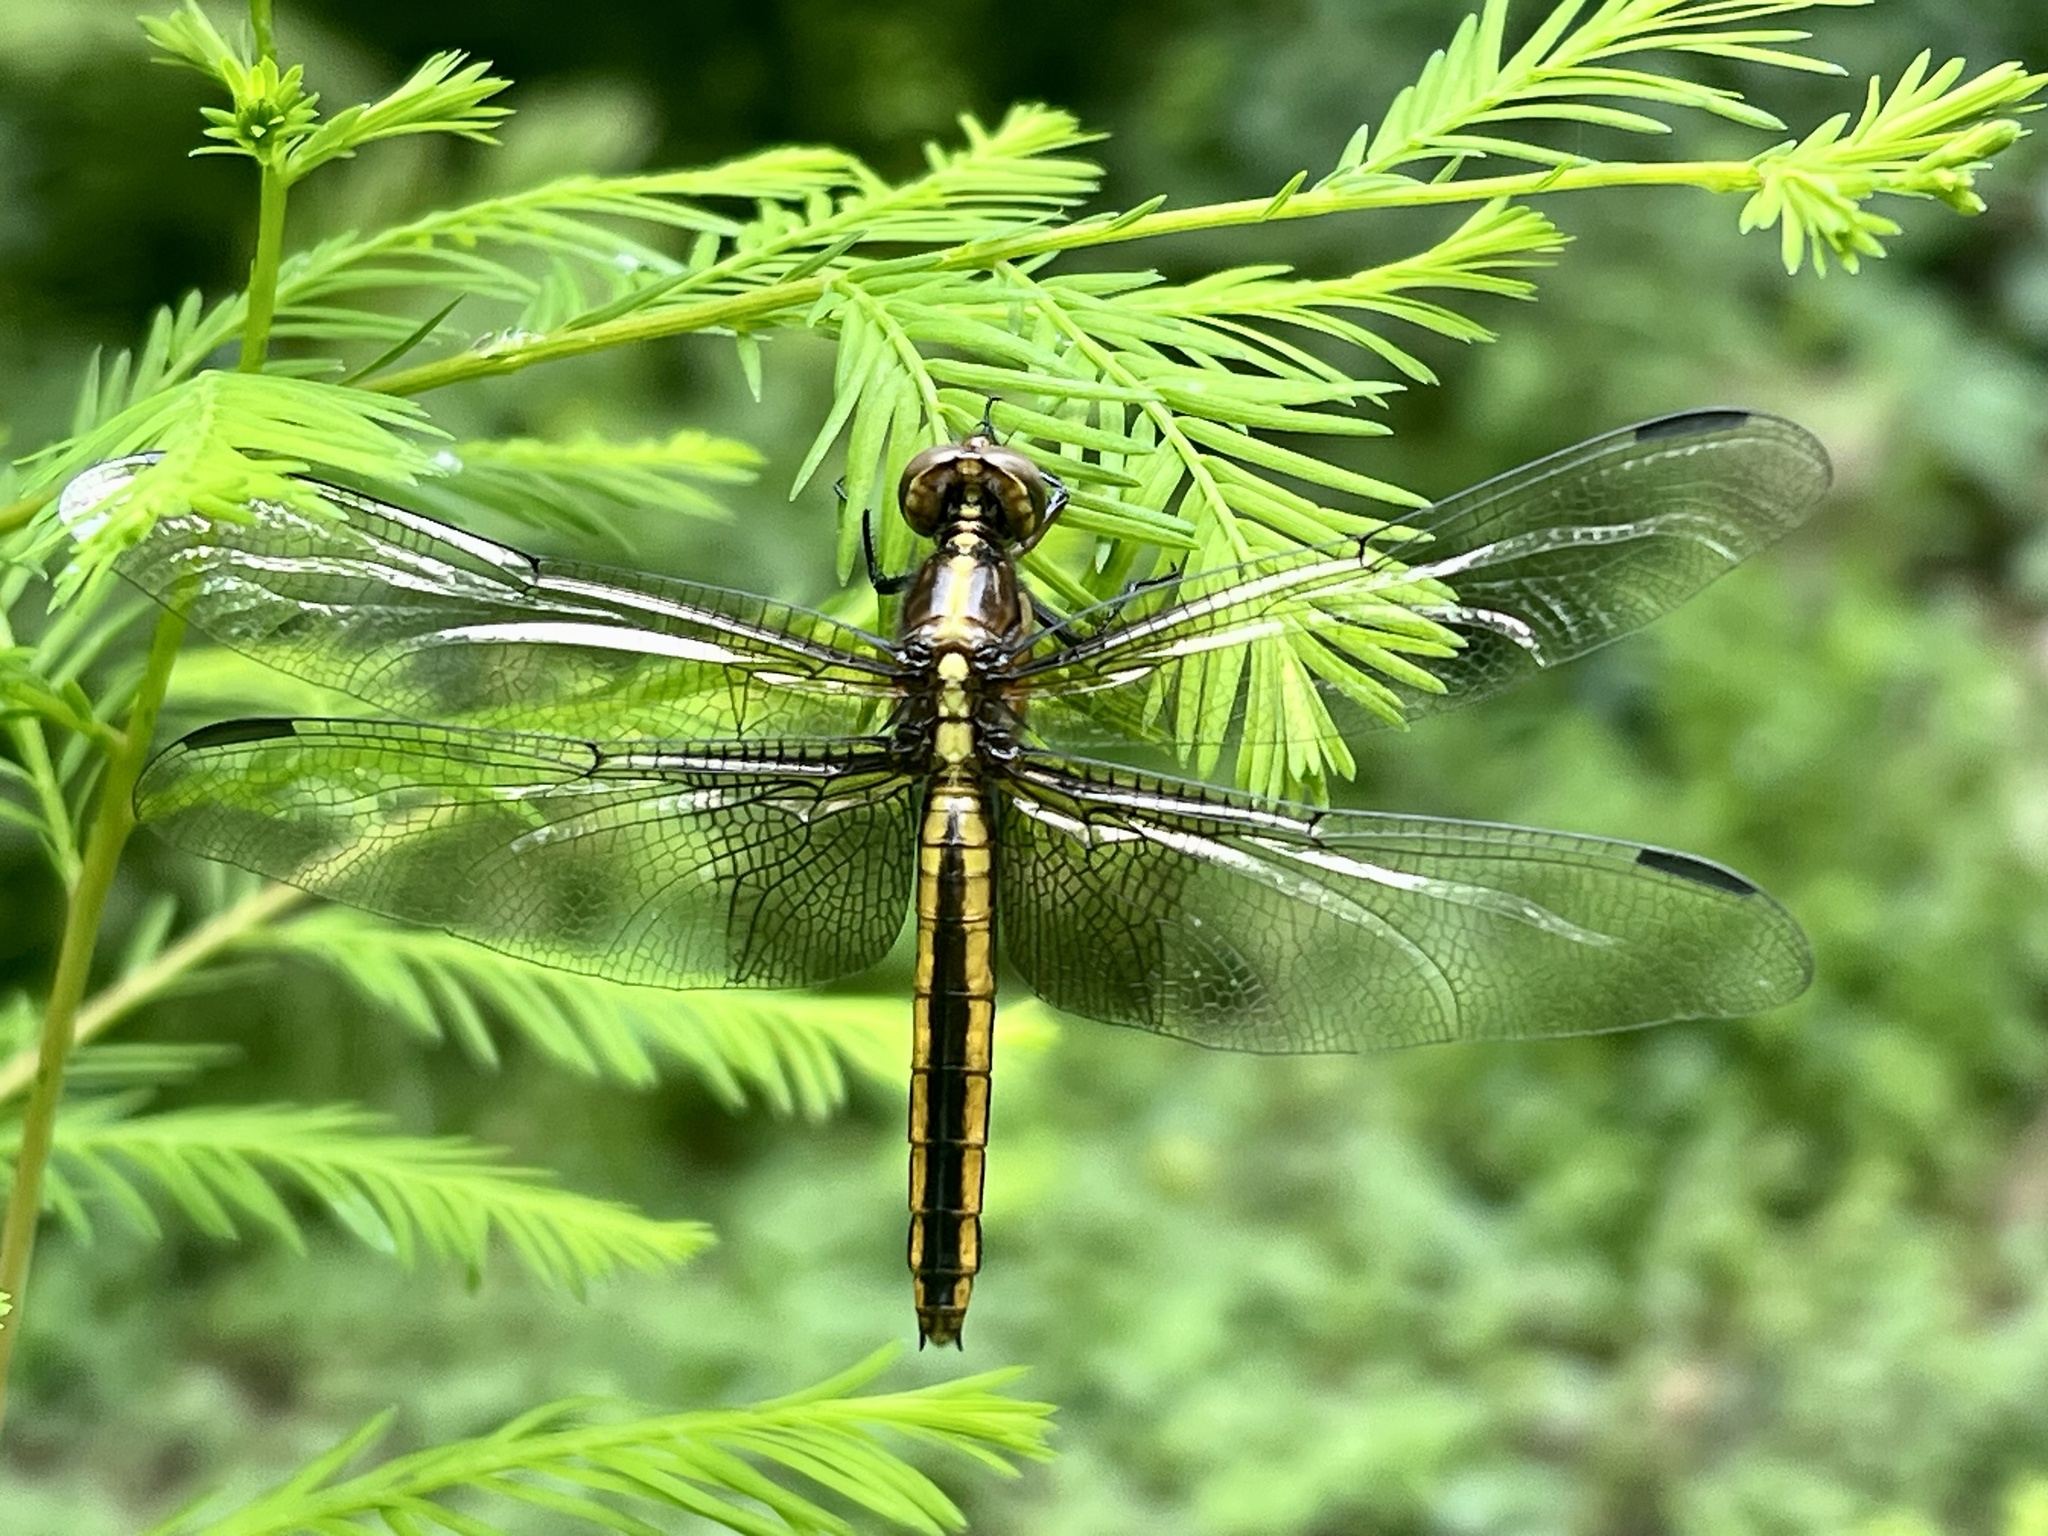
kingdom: Animalia
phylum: Arthropoda
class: Insecta
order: Odonata
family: Libellulidae
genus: Libellula
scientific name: Libellula luctuosa
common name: Widow skimmer
